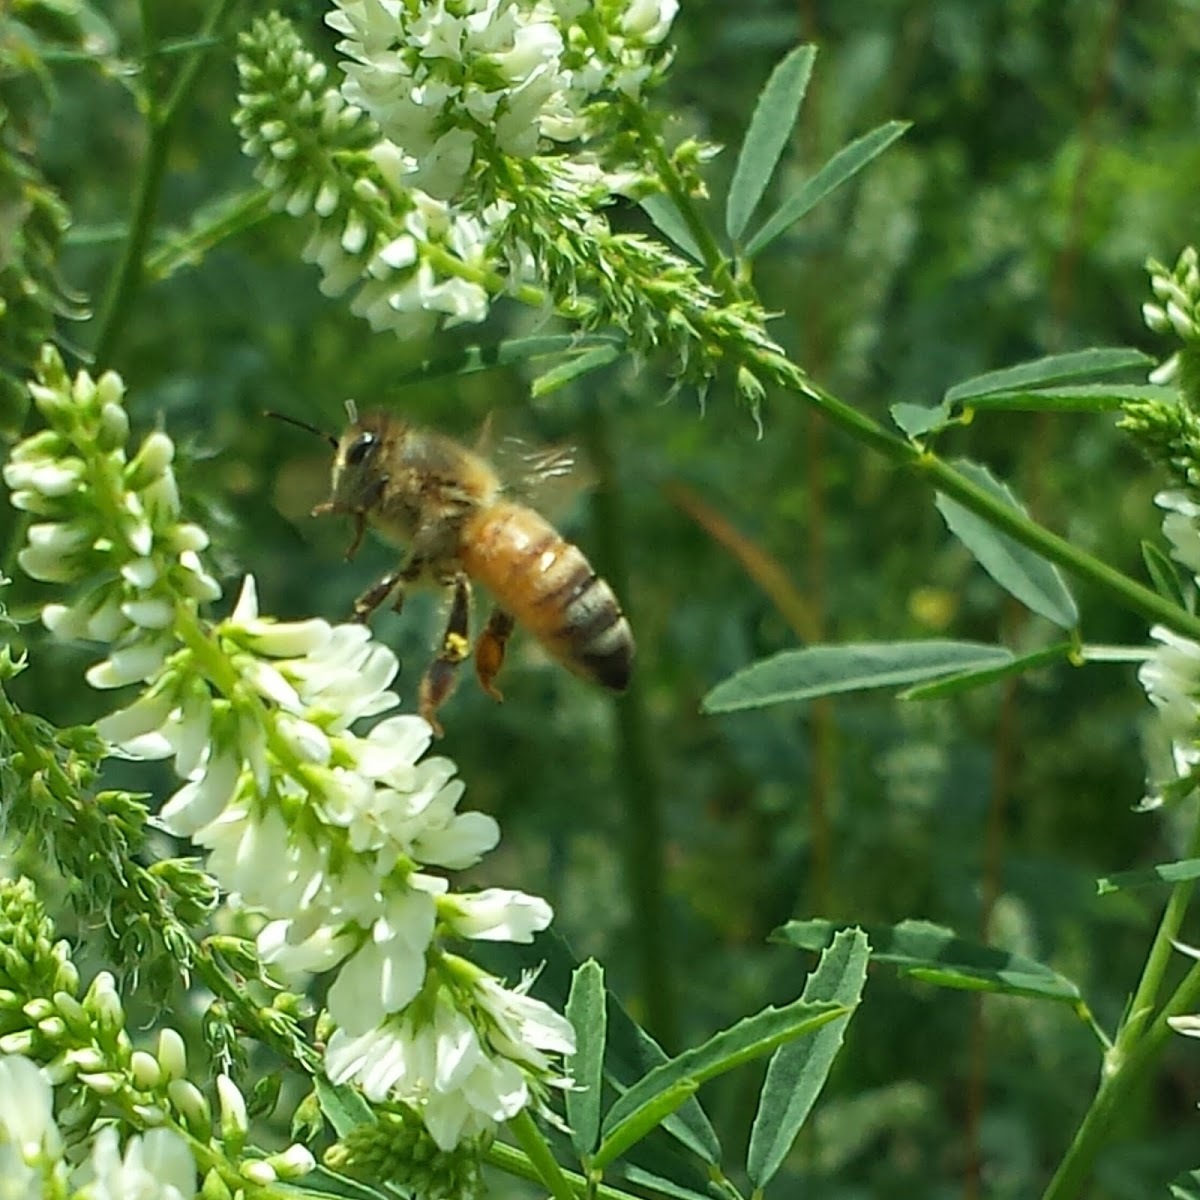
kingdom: Animalia
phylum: Arthropoda
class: Insecta
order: Hymenoptera
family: Apidae
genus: Apis
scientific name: Apis mellifera
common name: Honey bee
